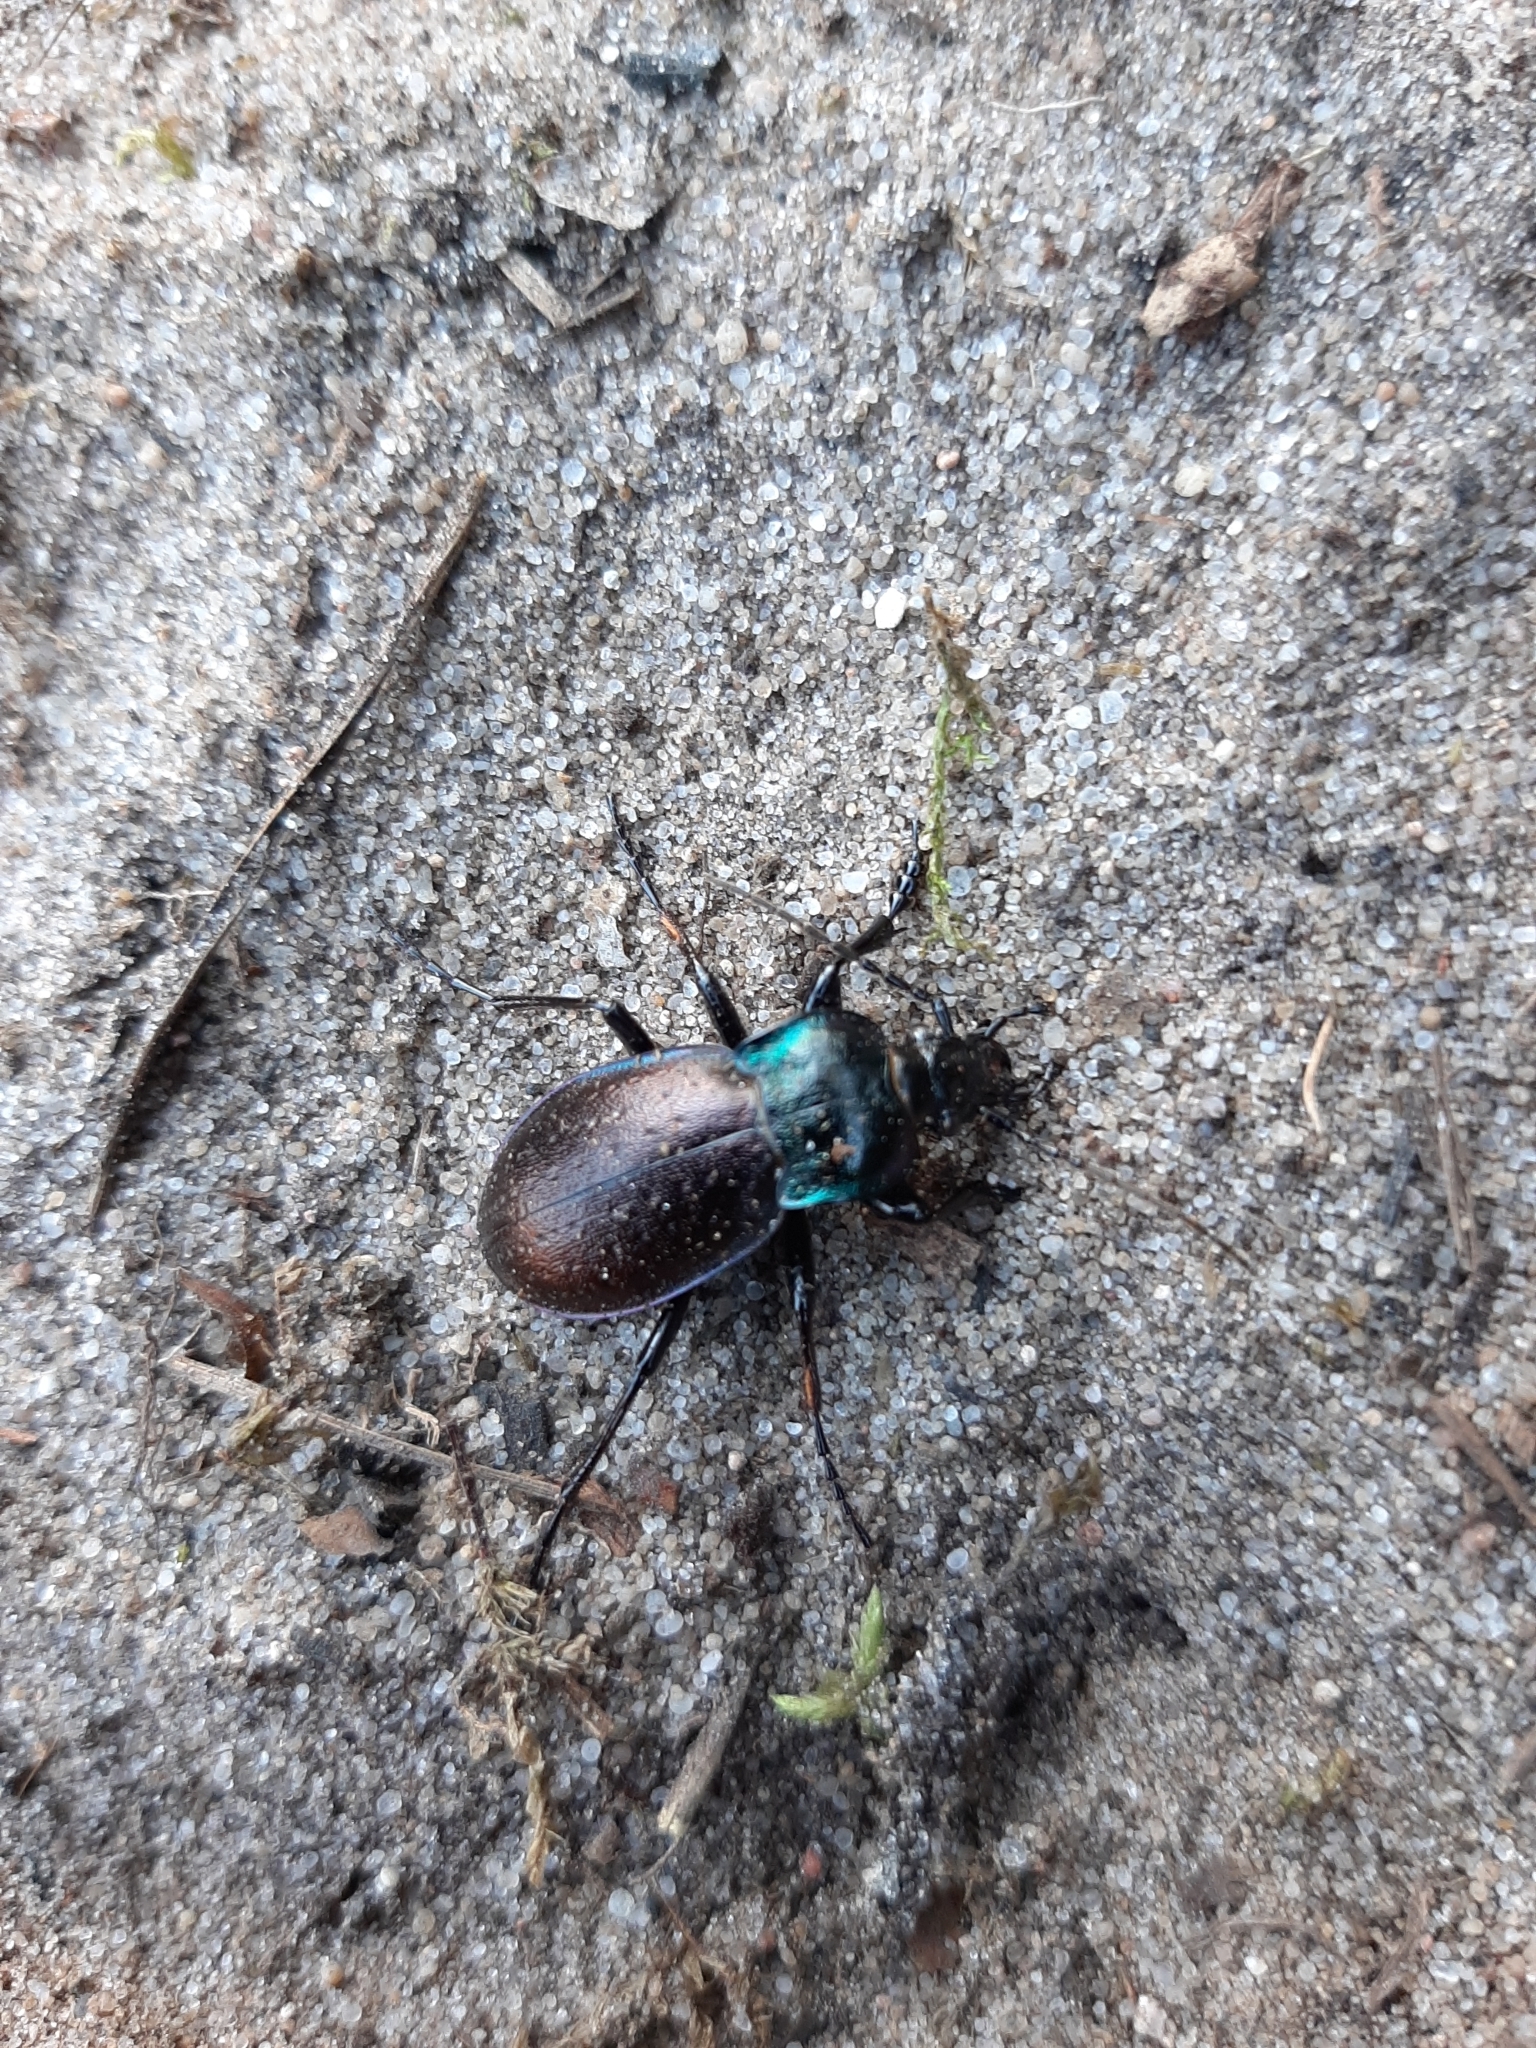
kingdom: Animalia
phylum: Arthropoda
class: Insecta
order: Coleoptera
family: Carabidae
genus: Carabus
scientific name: Carabus nemoralis
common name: European ground beetle
